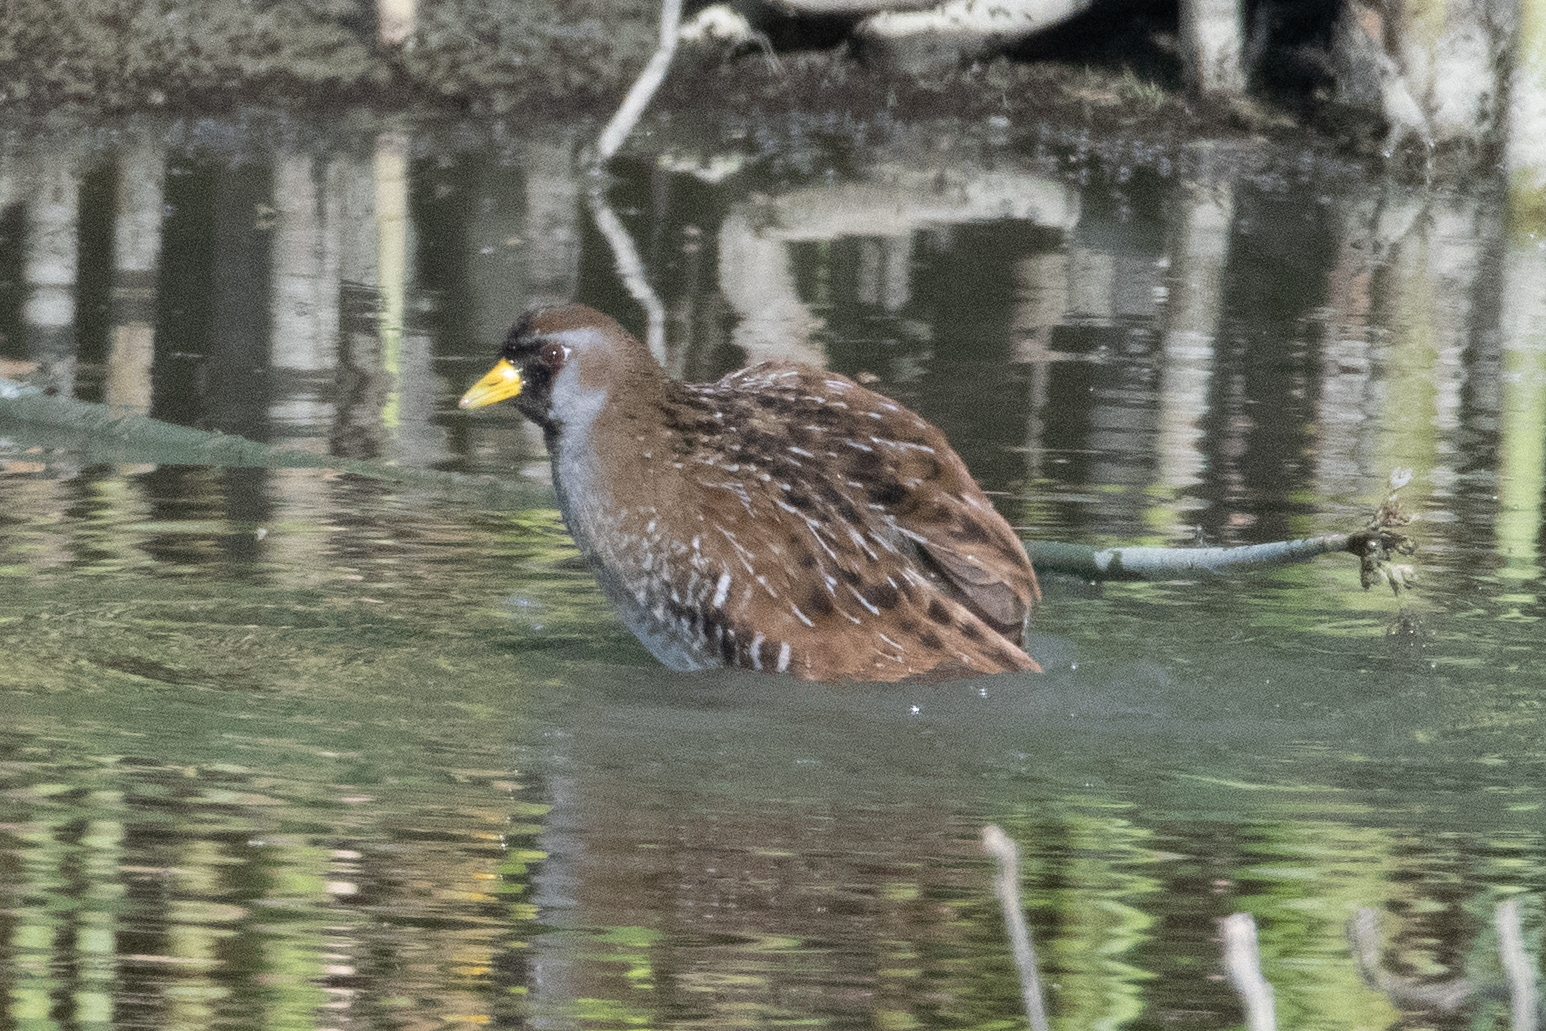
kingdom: Animalia
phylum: Chordata
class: Aves
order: Gruiformes
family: Rallidae
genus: Porzana
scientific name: Porzana carolina
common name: Sora
